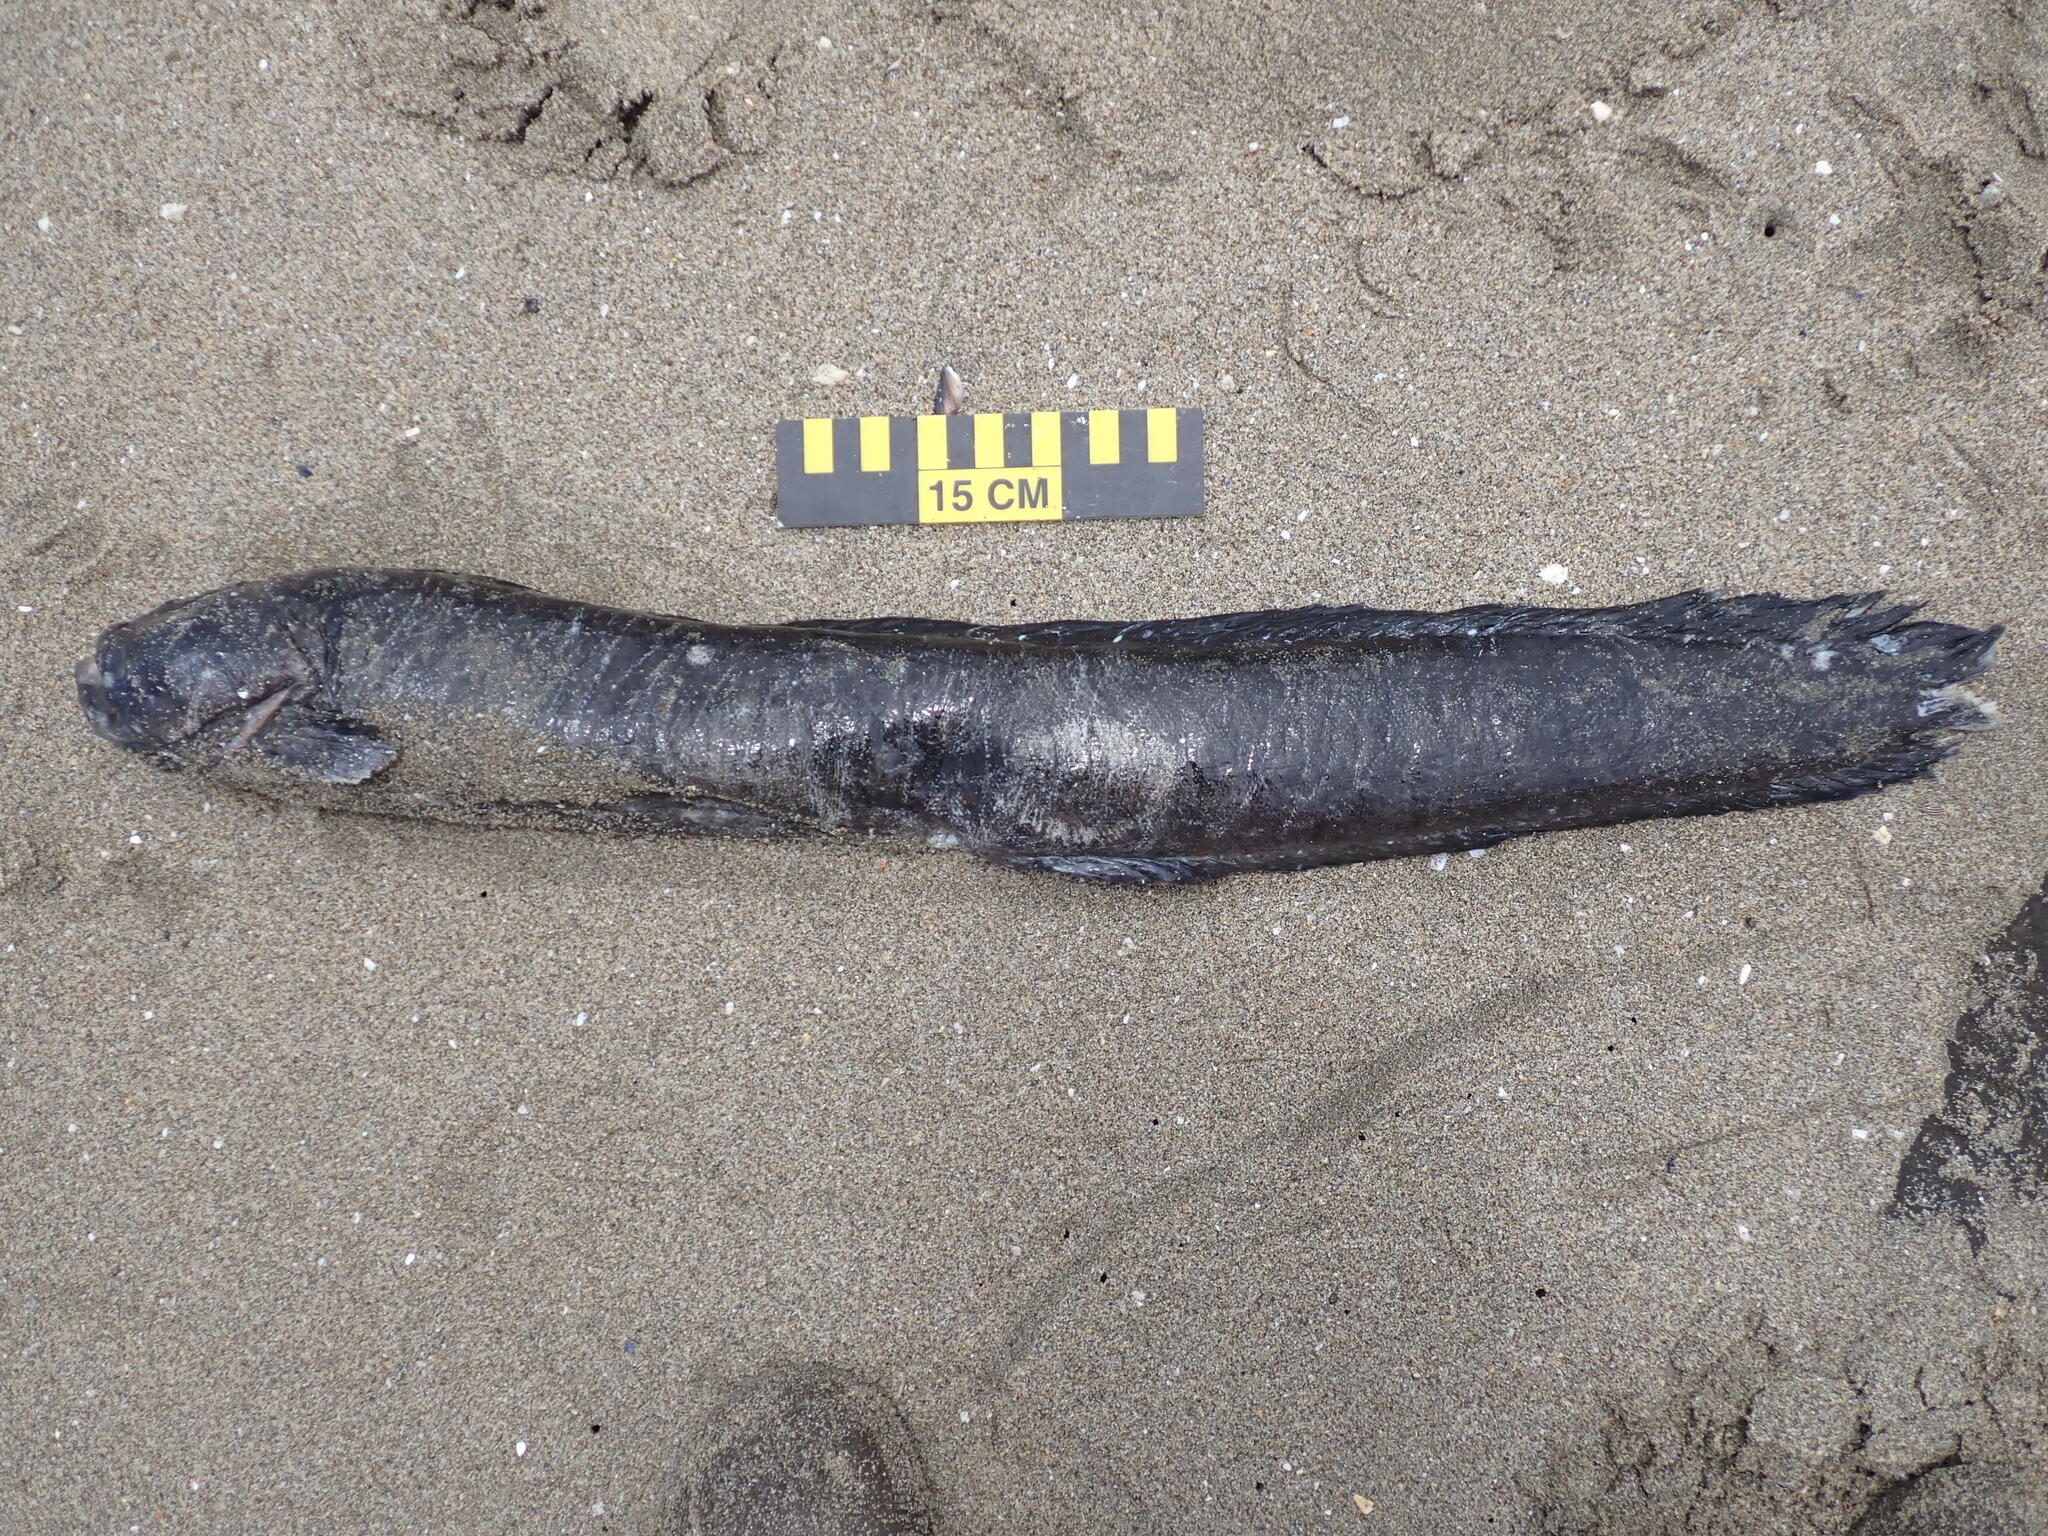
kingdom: Animalia
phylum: Chordata
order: Perciformes
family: Stichaeidae
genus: Cebidichthys
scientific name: Cebidichthys violaceus
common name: Monkeyface prickleback
